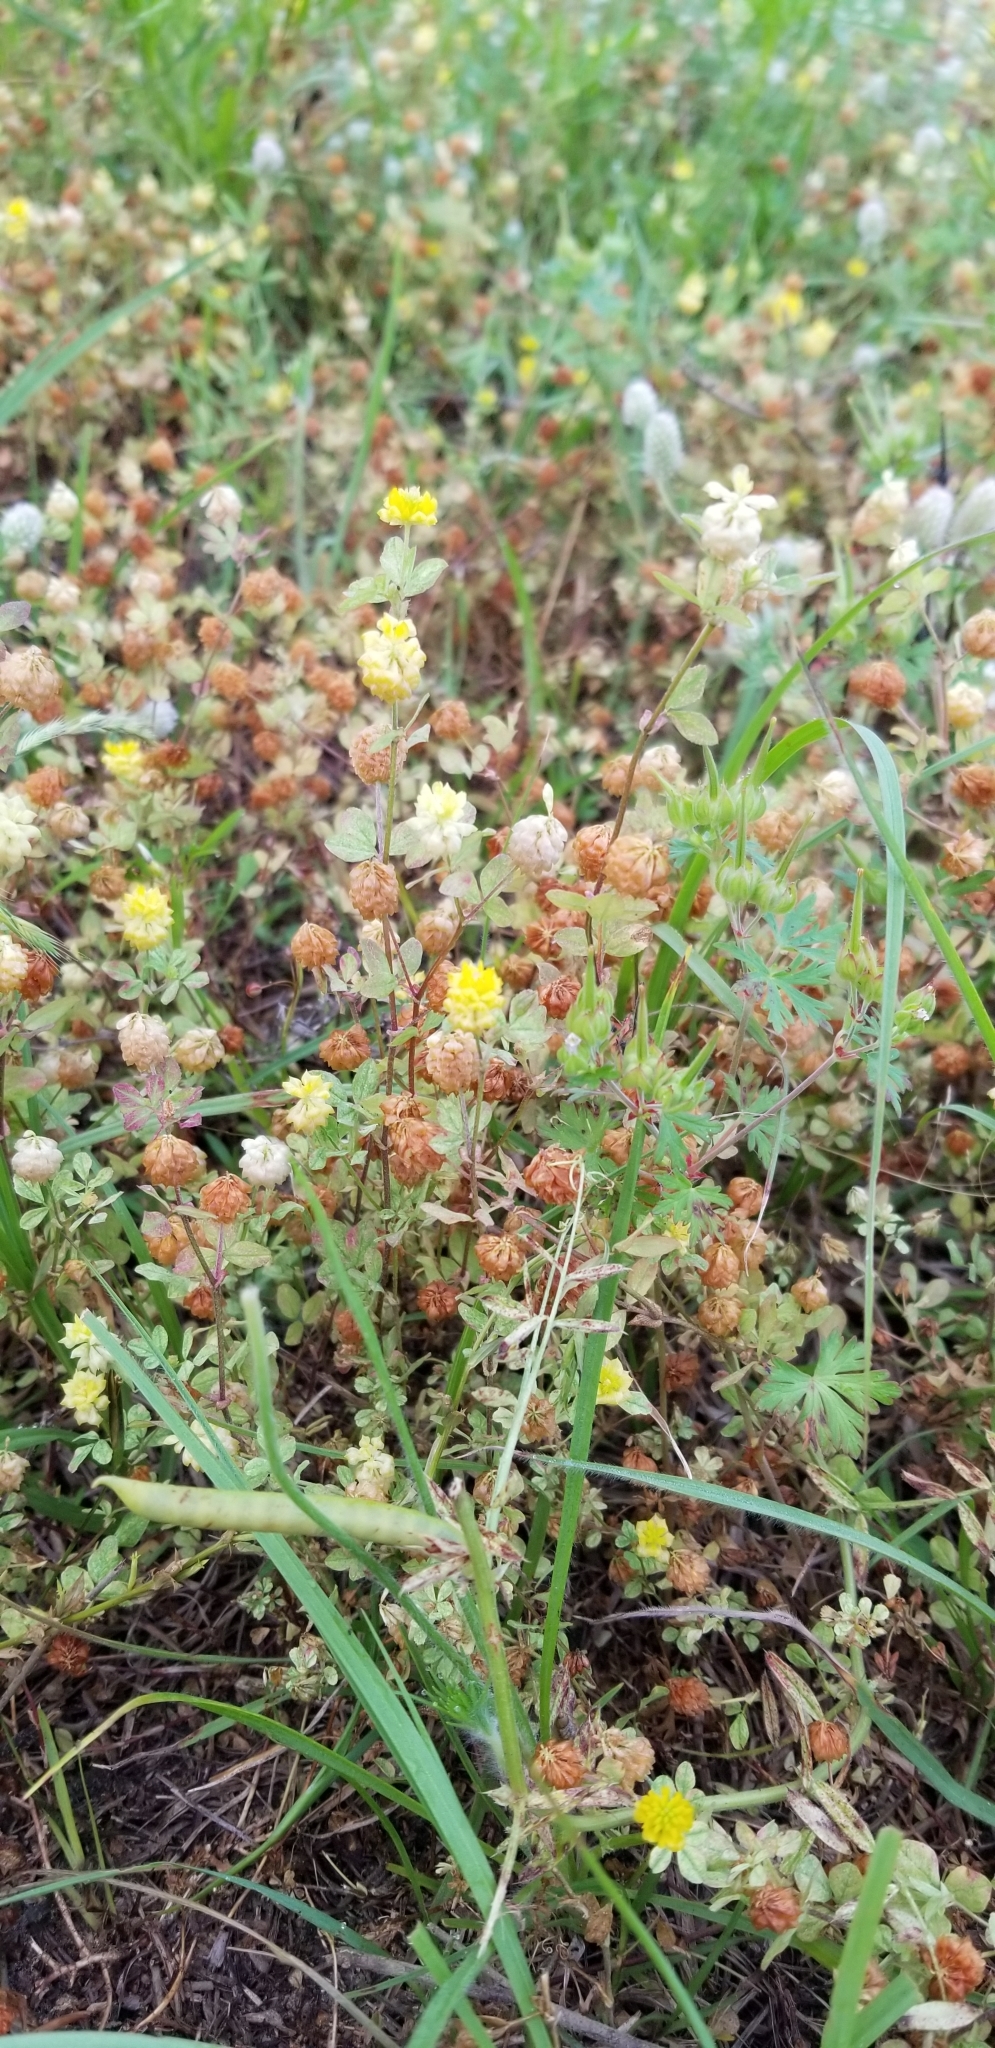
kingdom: Plantae
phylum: Tracheophyta
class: Magnoliopsida
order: Fabales
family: Fabaceae
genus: Trifolium
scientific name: Trifolium campestre
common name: Field clover
